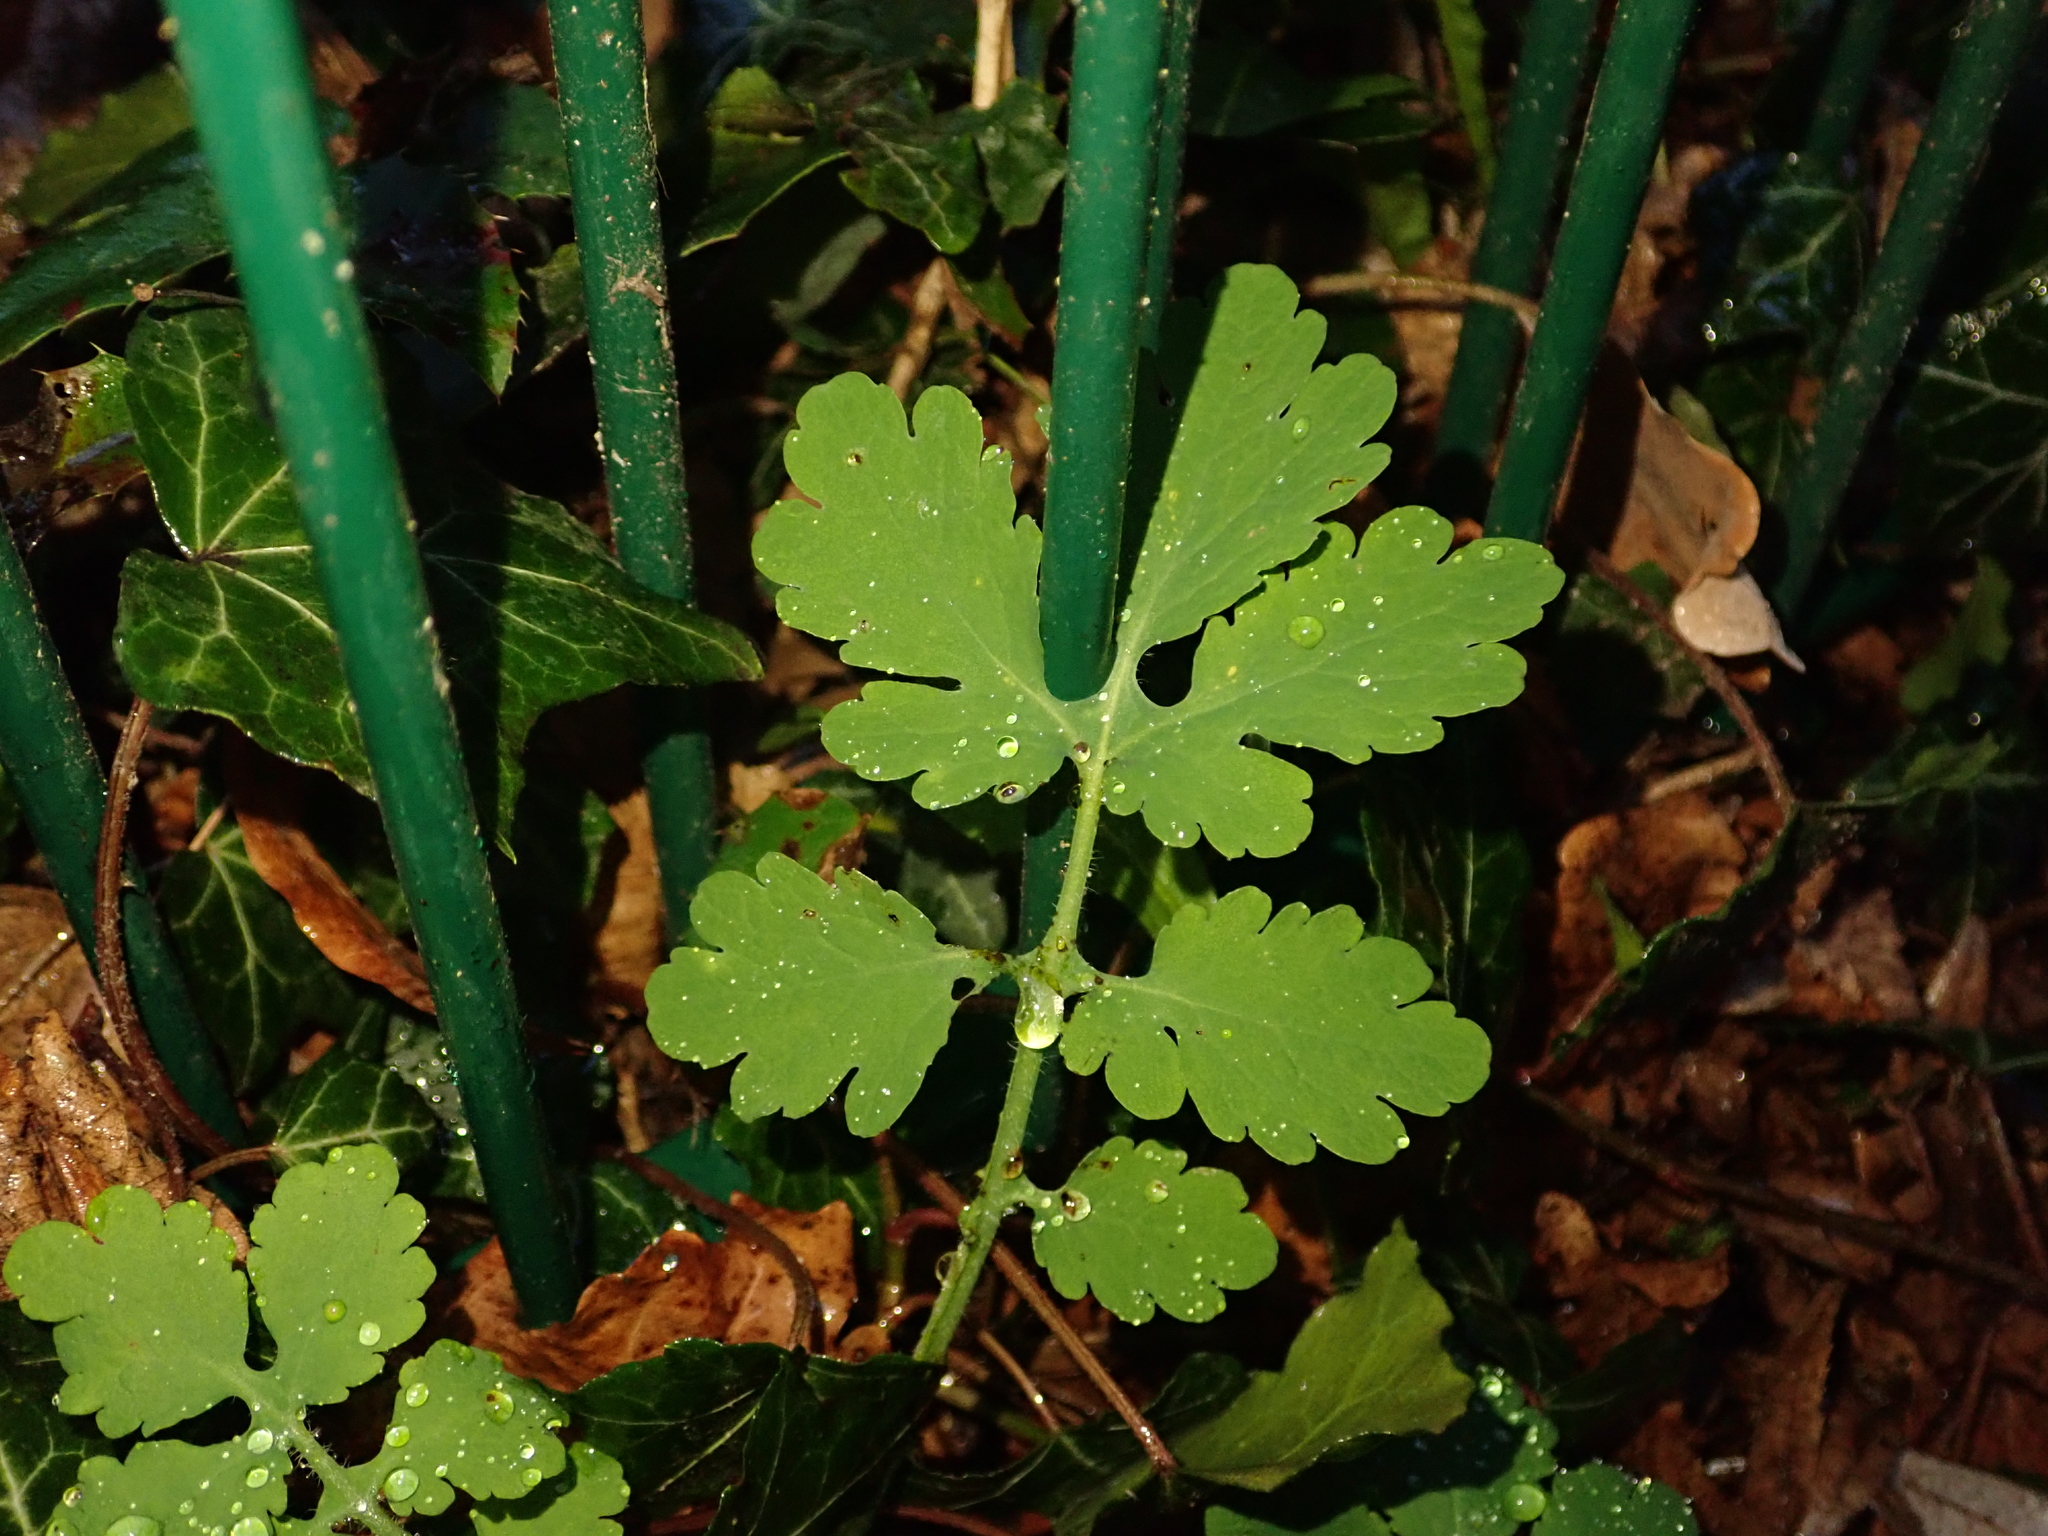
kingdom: Plantae
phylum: Tracheophyta
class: Magnoliopsida
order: Ranunculales
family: Papaveraceae
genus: Chelidonium
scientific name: Chelidonium majus
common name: Greater celandine
